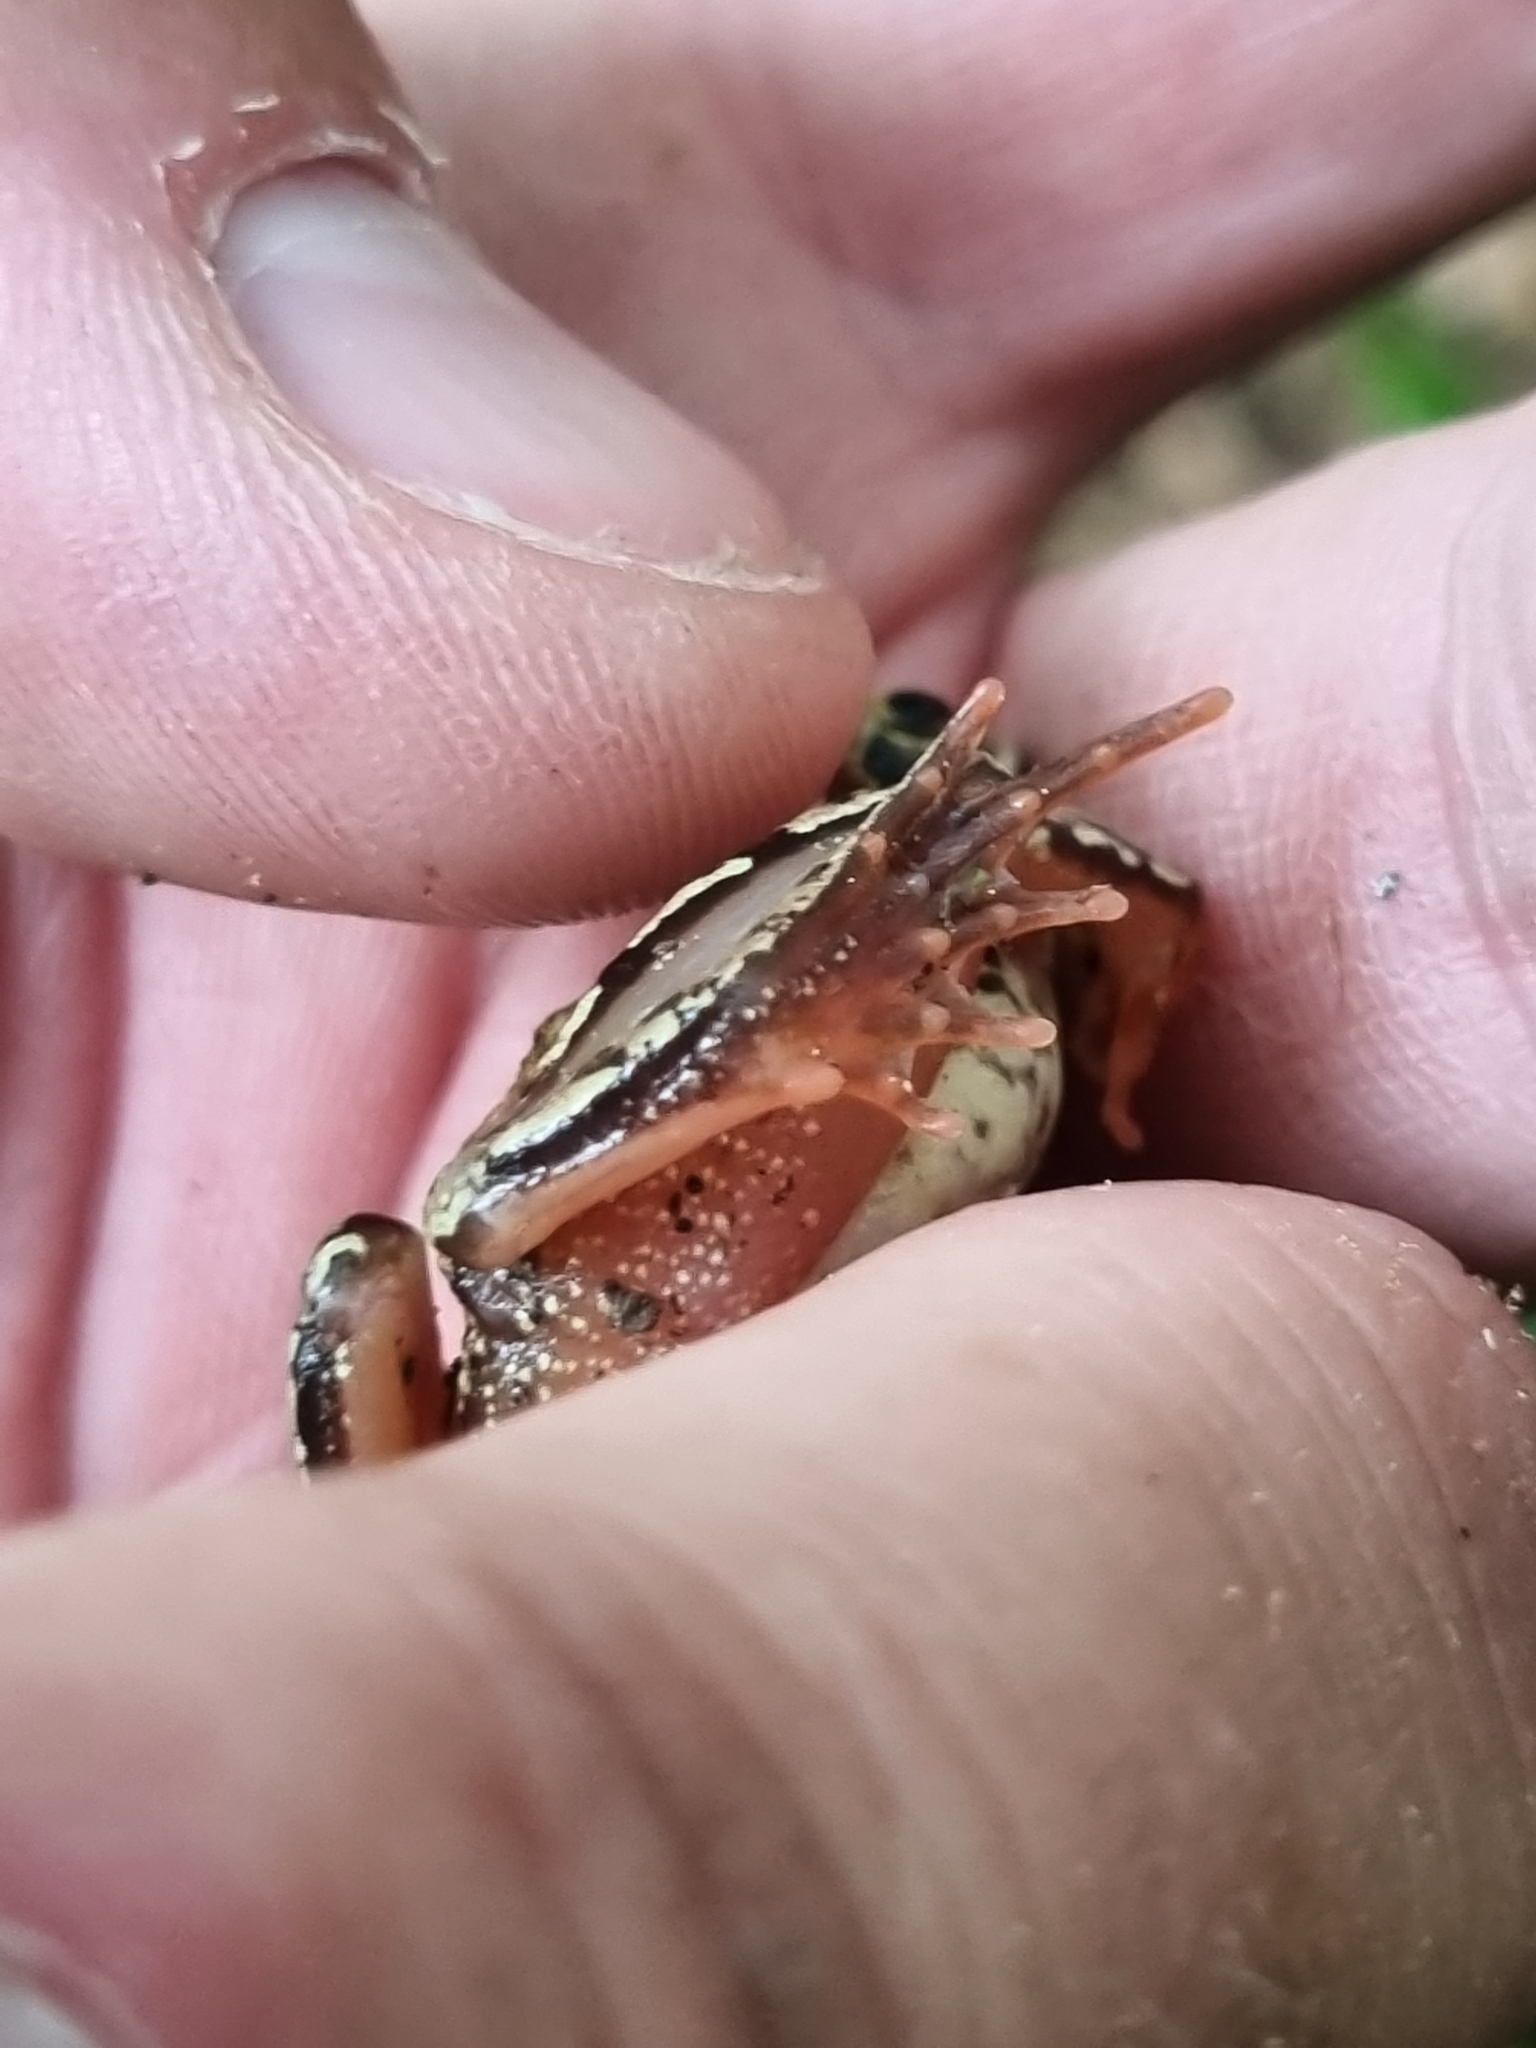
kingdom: Animalia
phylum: Chordata
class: Amphibia
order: Anura
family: Ranidae
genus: Rana
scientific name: Rana temporaria
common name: Common frog
